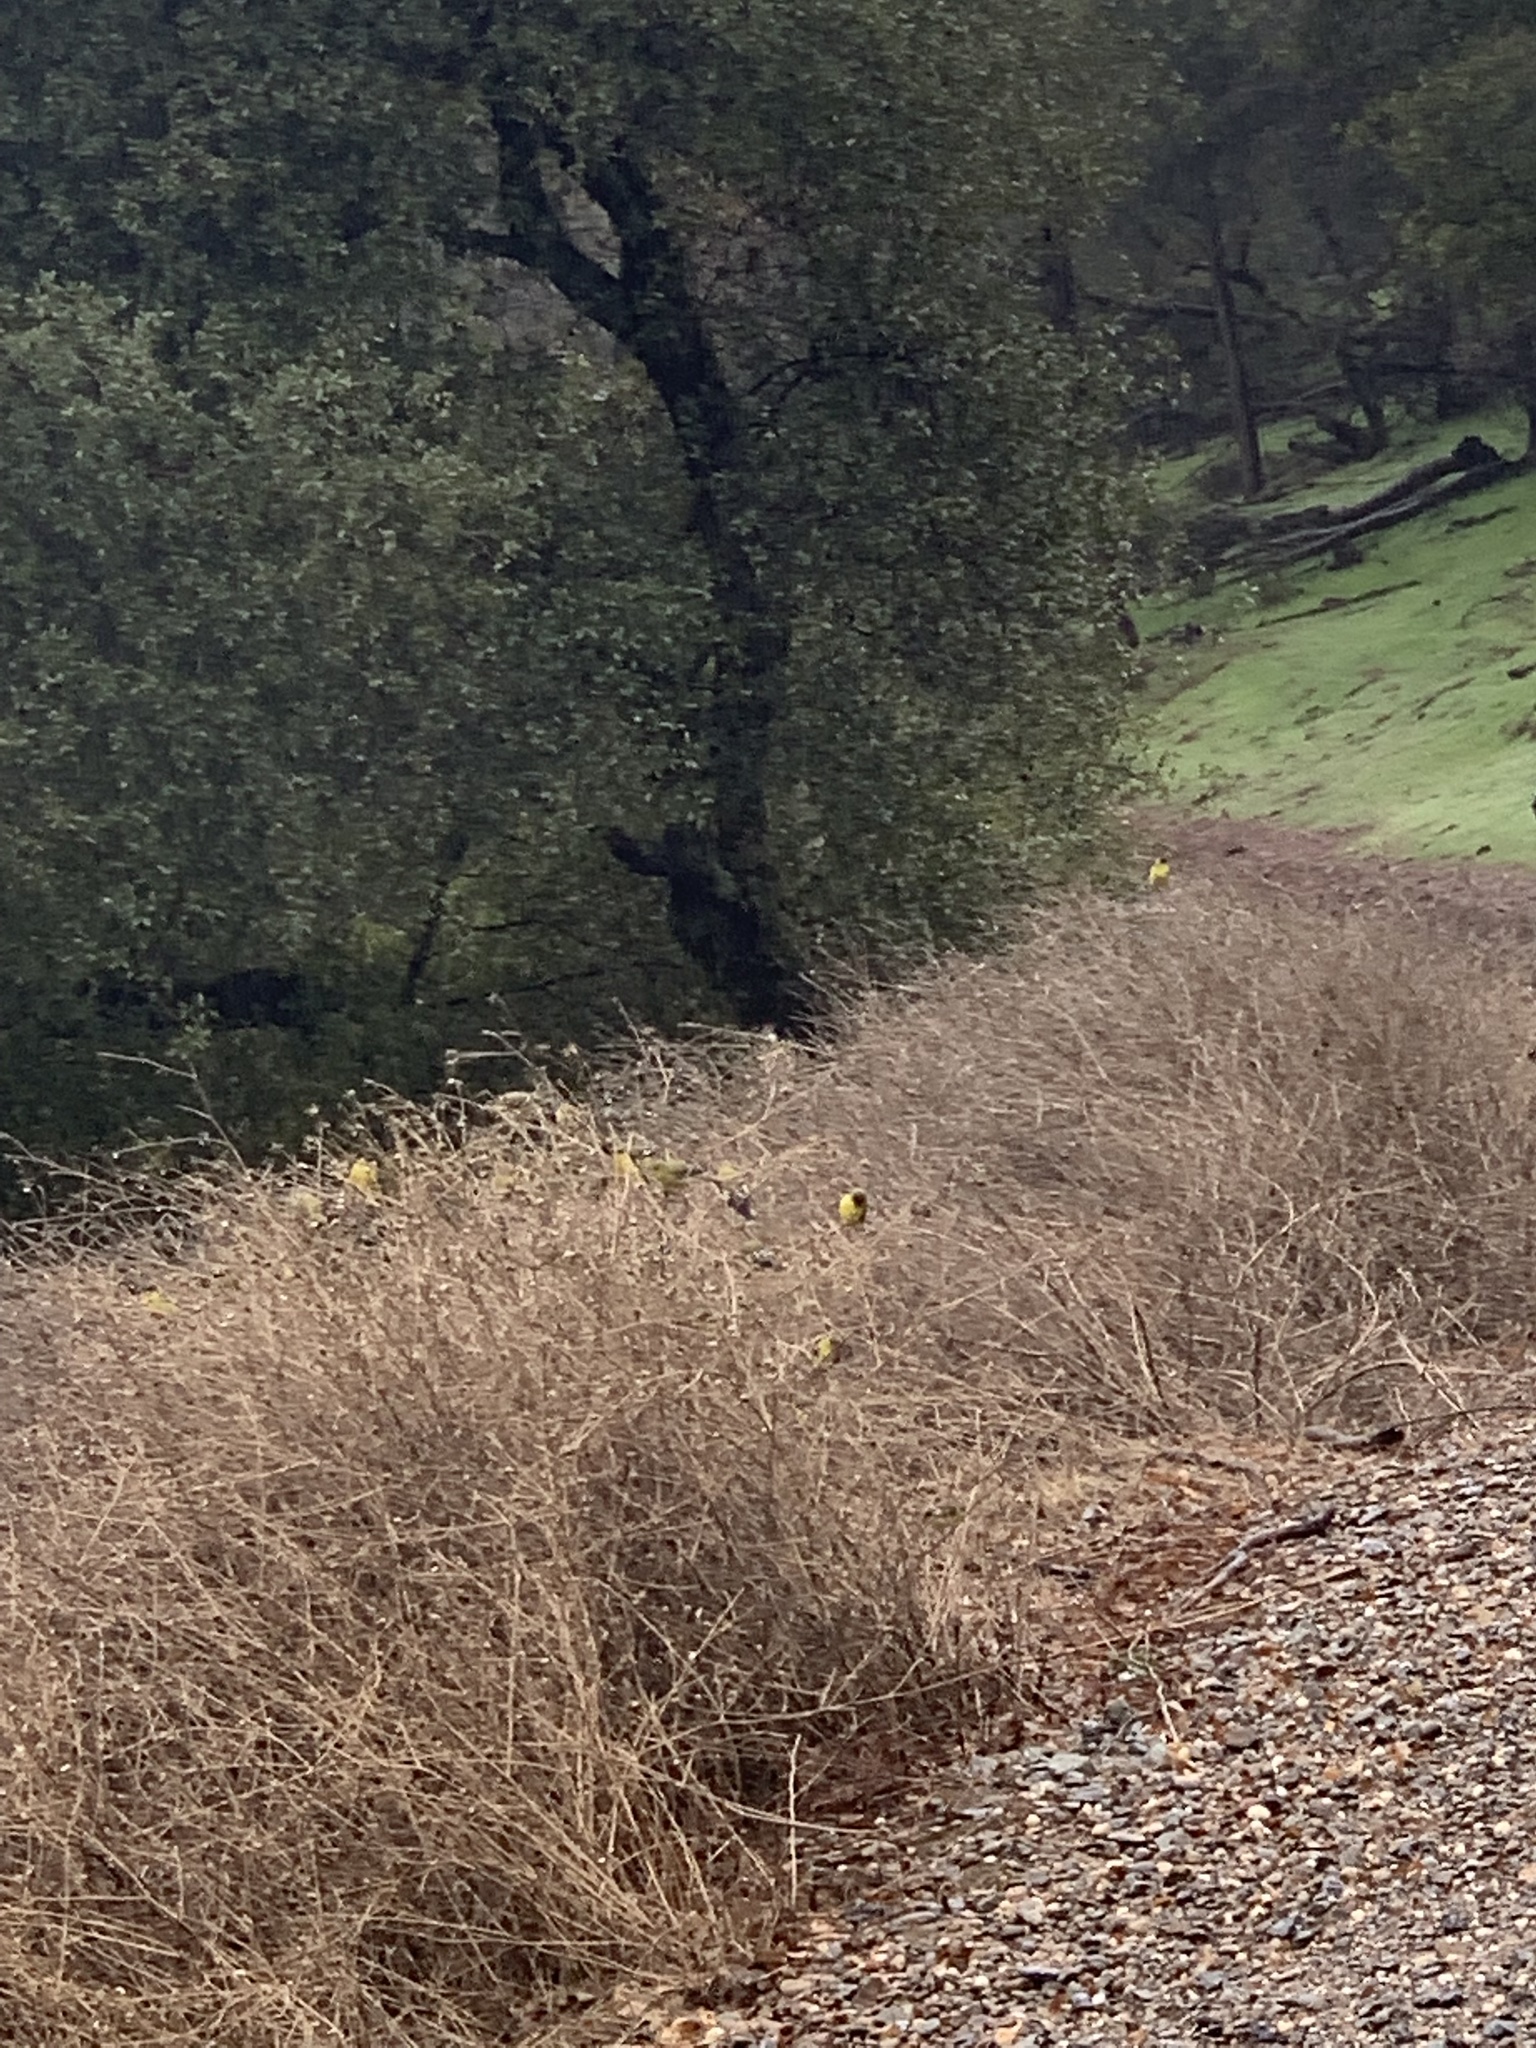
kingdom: Animalia
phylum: Chordata
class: Aves
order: Passeriformes
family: Fringillidae
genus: Spinus
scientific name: Spinus psaltria
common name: Lesser goldfinch
